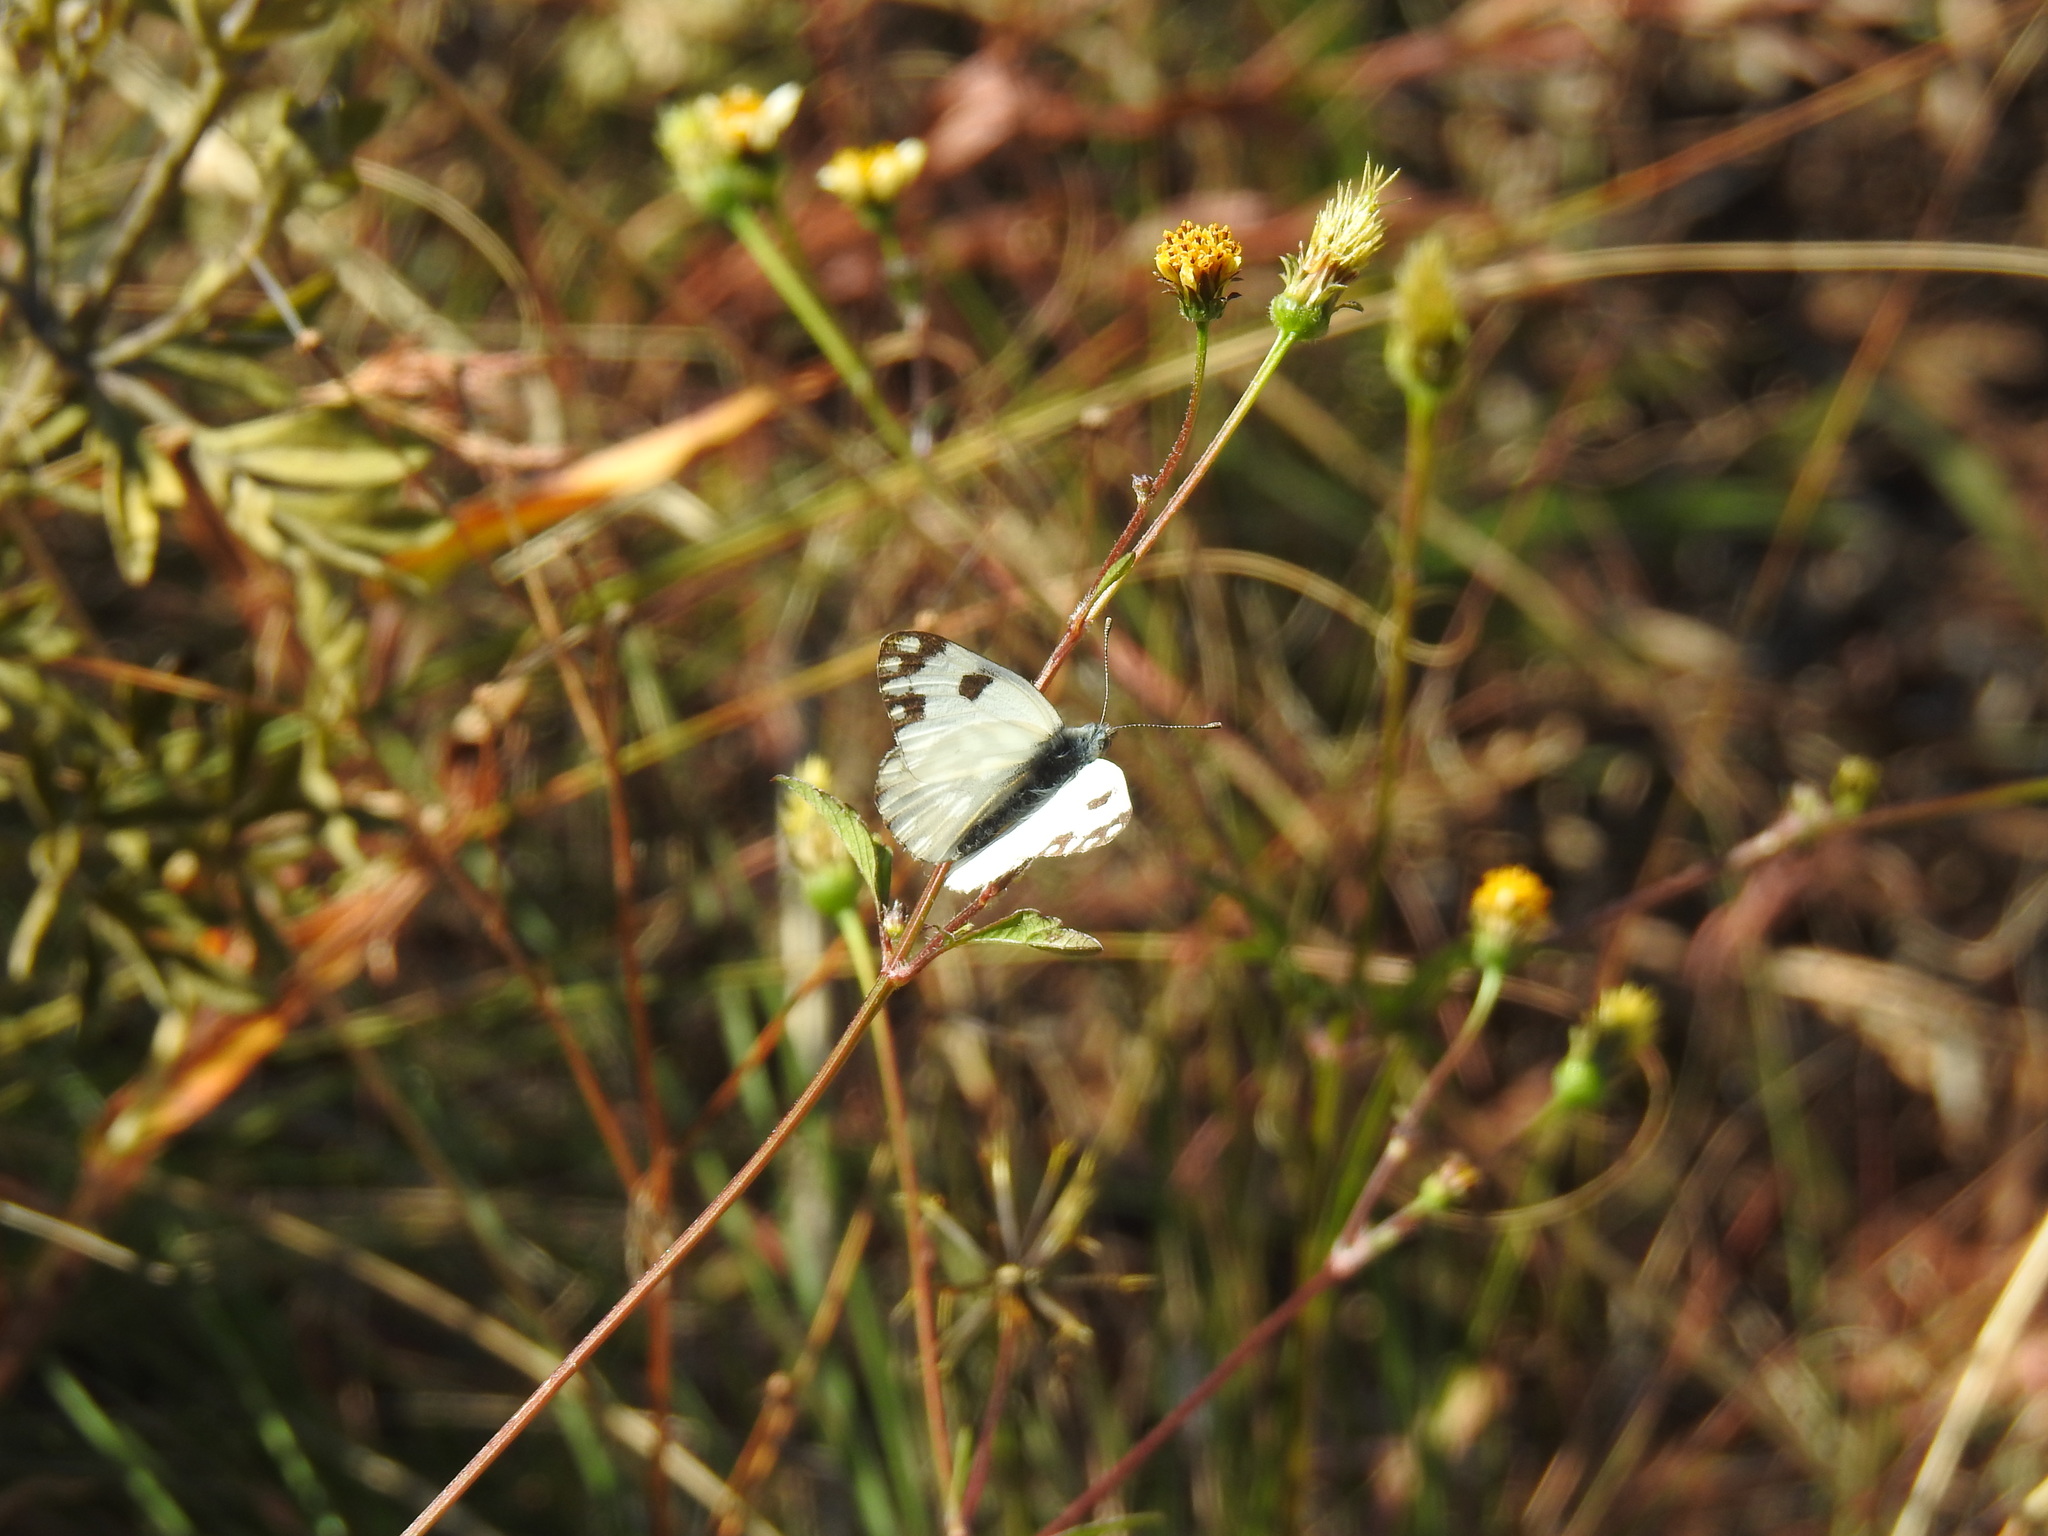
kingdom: Animalia
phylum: Arthropoda
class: Insecta
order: Lepidoptera
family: Pieridae
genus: Pontia
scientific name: Pontia helice
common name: Meadow white
